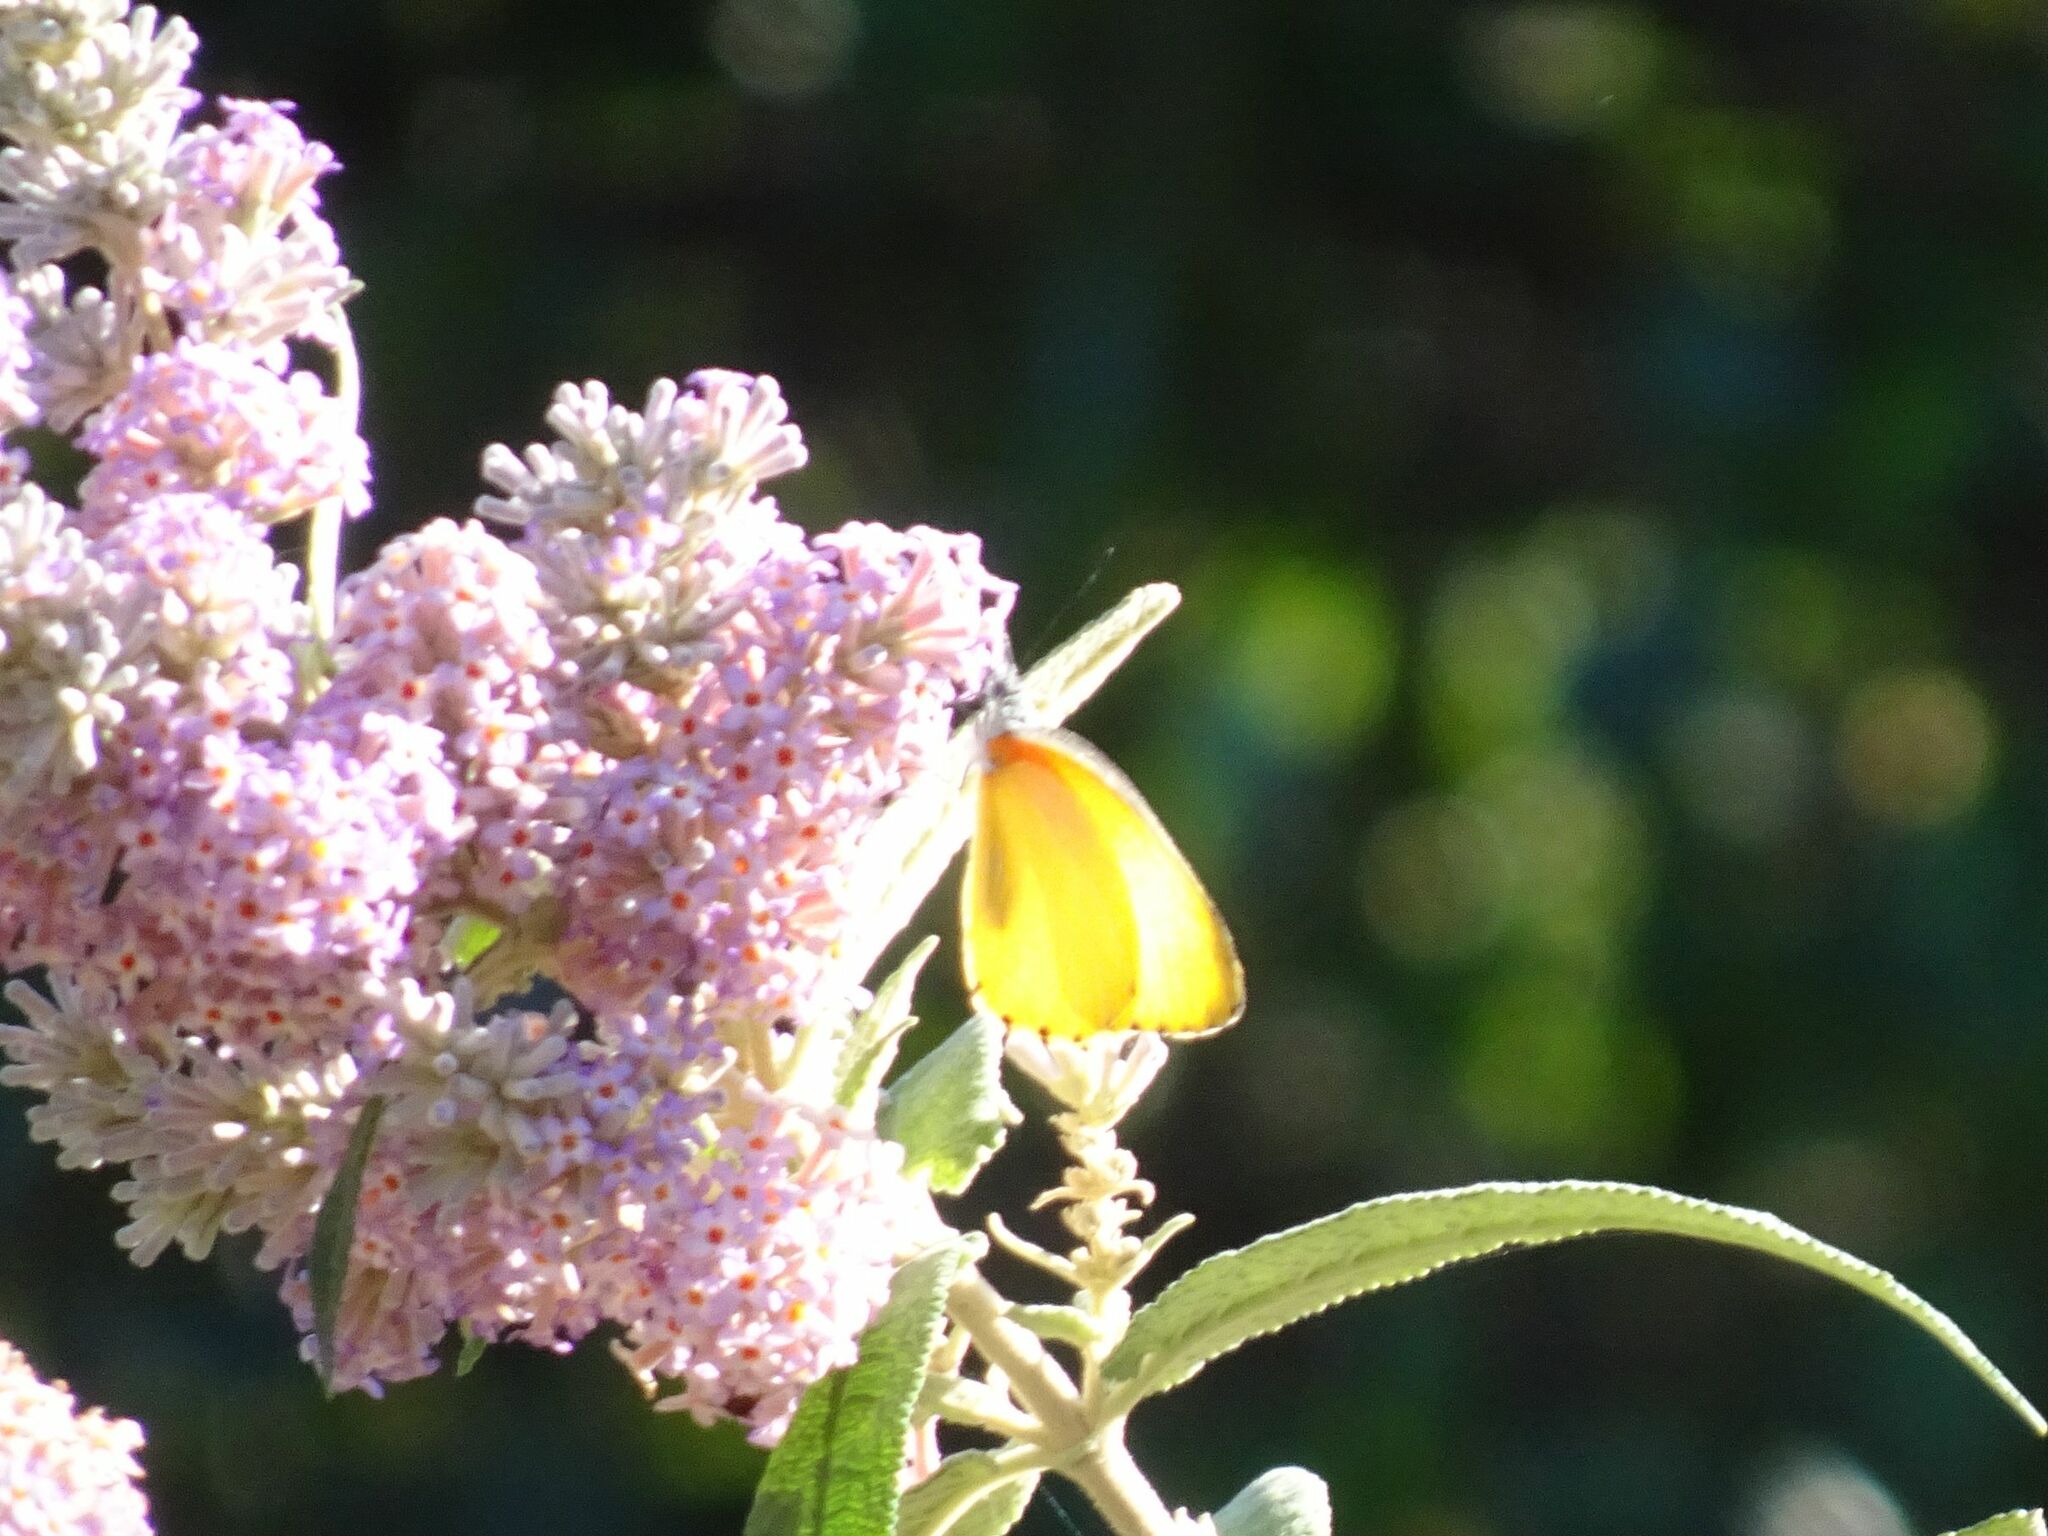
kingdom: Animalia
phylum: Arthropoda
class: Insecta
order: Lepidoptera
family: Pieridae
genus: Mylothris
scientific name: Mylothris agathina
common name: Eastern dotted border
